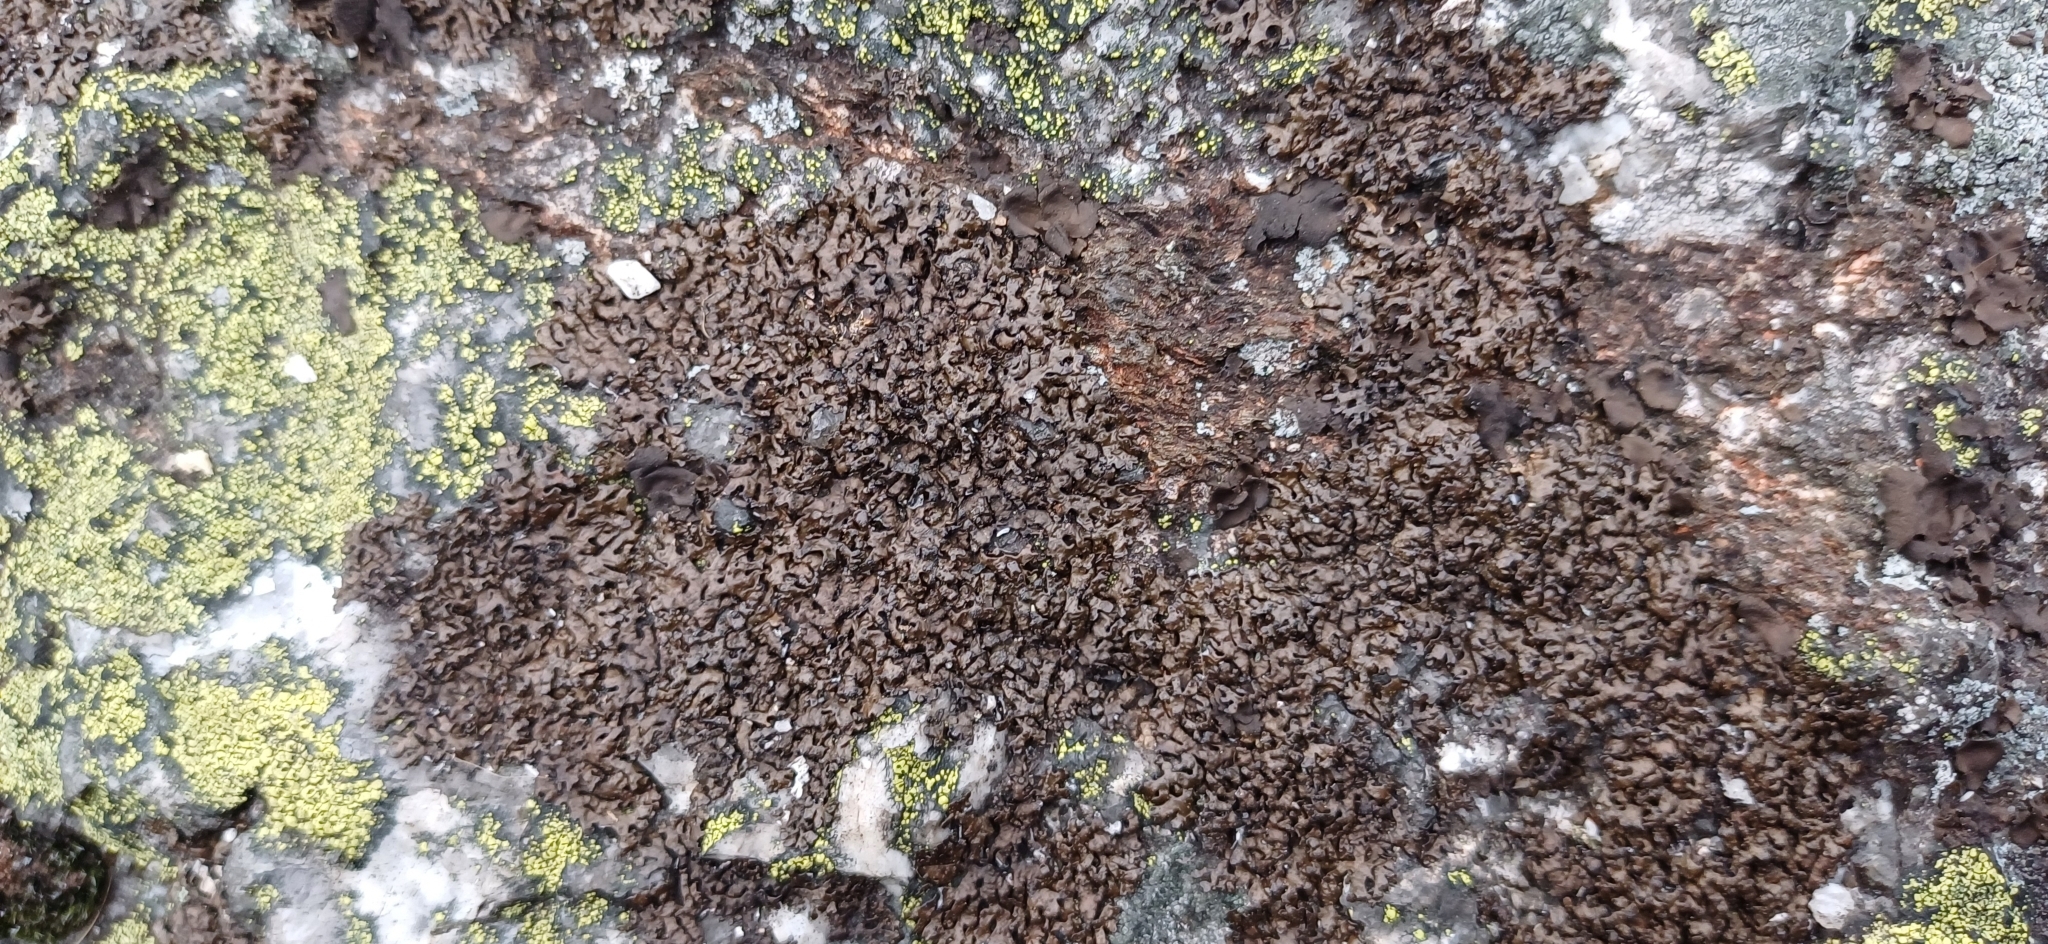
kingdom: Fungi
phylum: Ascomycota
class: Lecanoromycetes
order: Lecanorales
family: Parmeliaceae
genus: Melanelia
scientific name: Melanelia stygia
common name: Alpine camouflage lichen
